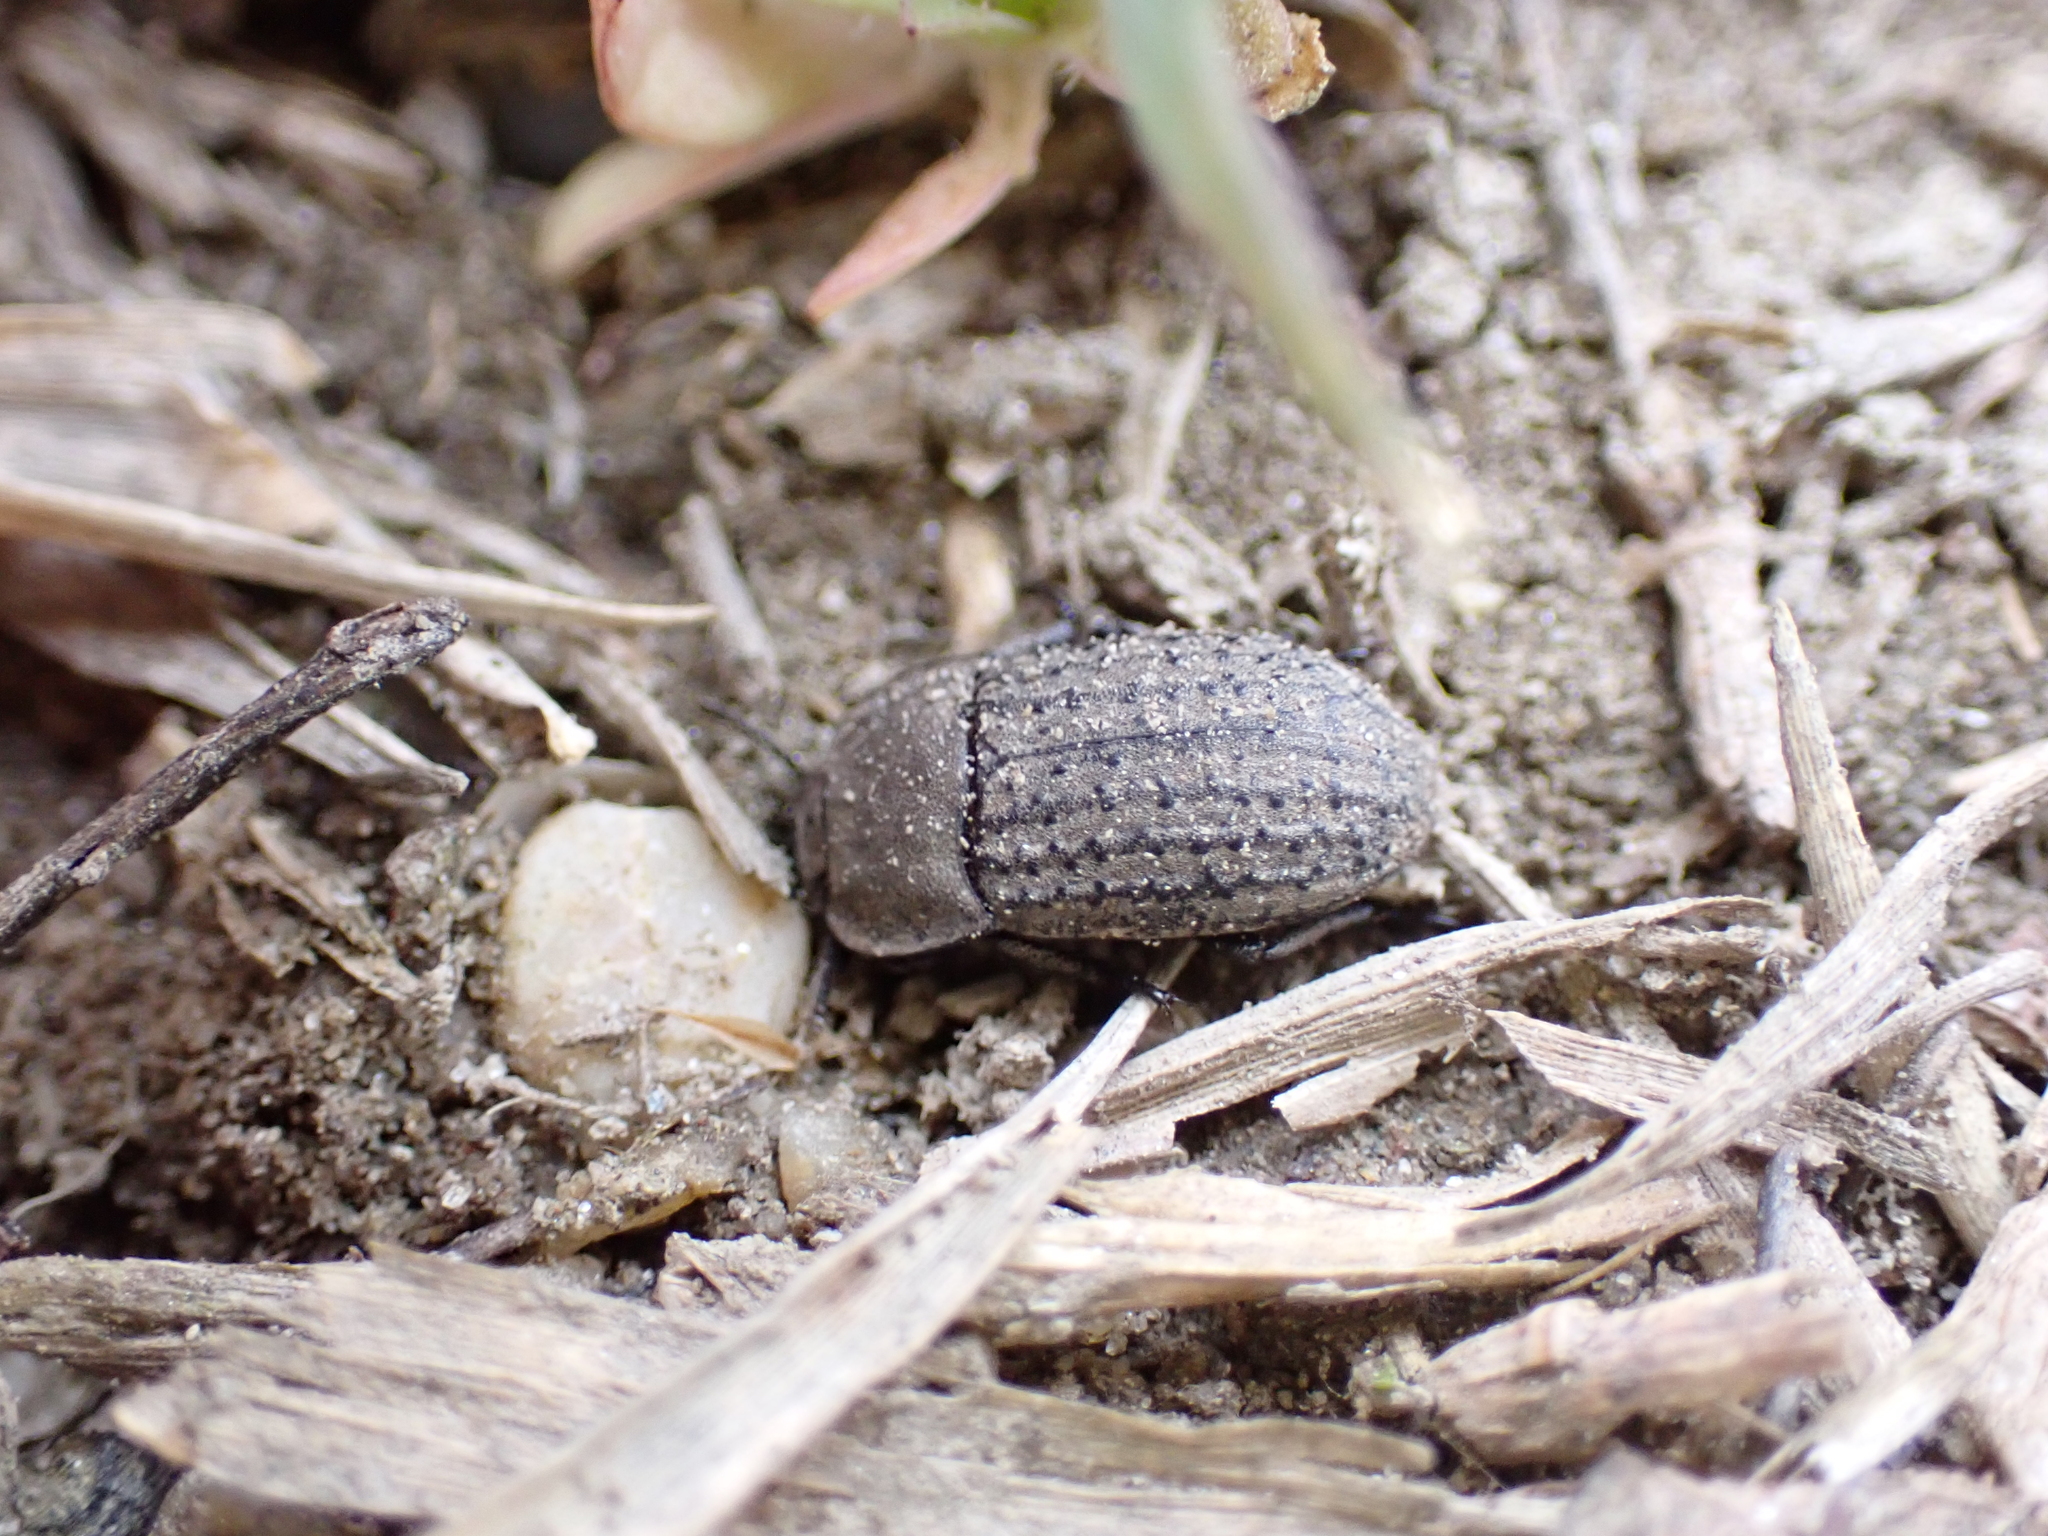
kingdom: Animalia
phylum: Arthropoda
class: Insecta
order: Coleoptera
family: Tenebrionidae
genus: Opatrum
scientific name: Opatrum sabulosum
